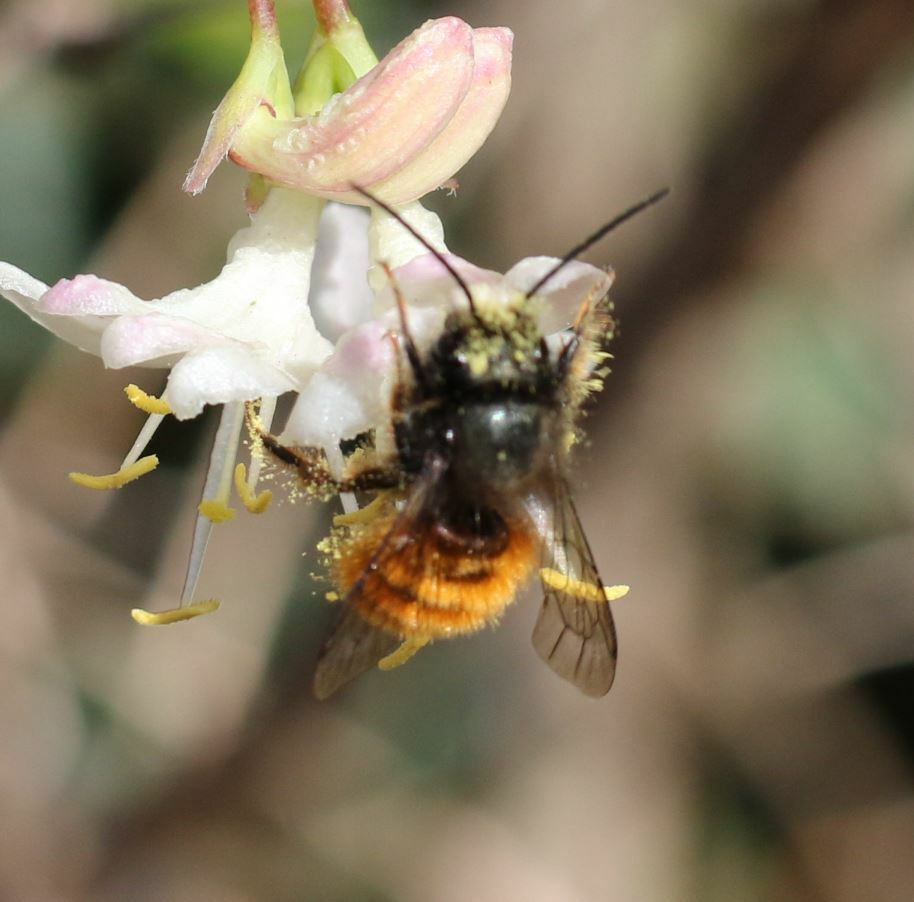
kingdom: Animalia
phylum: Arthropoda
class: Insecta
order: Hymenoptera
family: Megachilidae
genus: Osmia
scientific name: Osmia cornuta
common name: Mason bee
